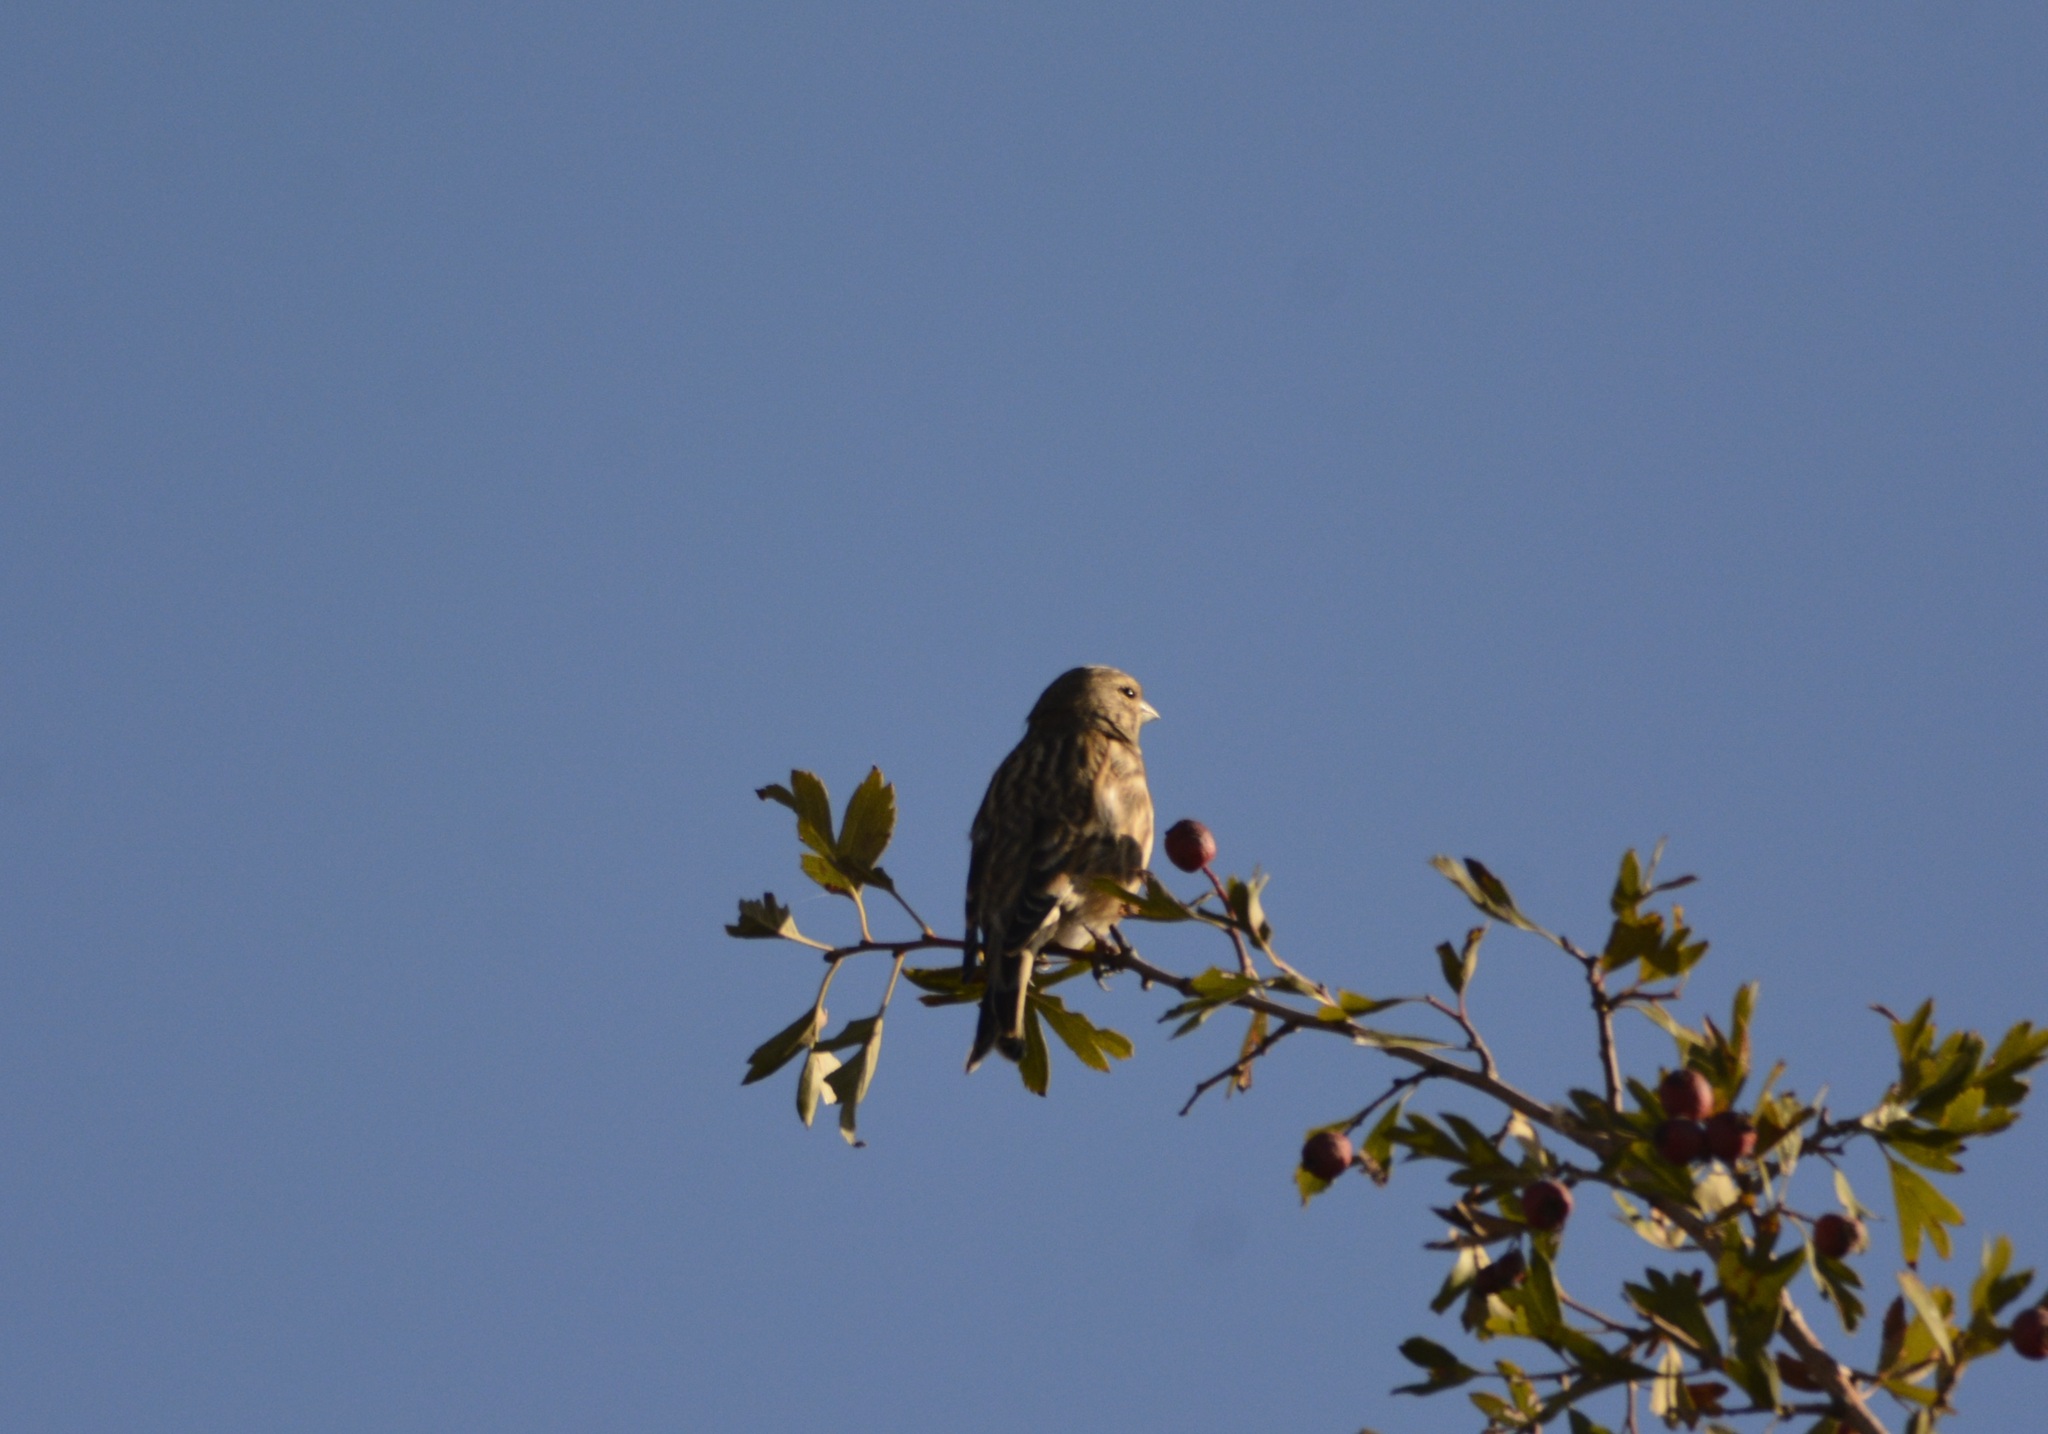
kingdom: Animalia
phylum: Chordata
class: Aves
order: Passeriformes
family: Fringillidae
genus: Linaria
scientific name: Linaria cannabina
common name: Common linnet
